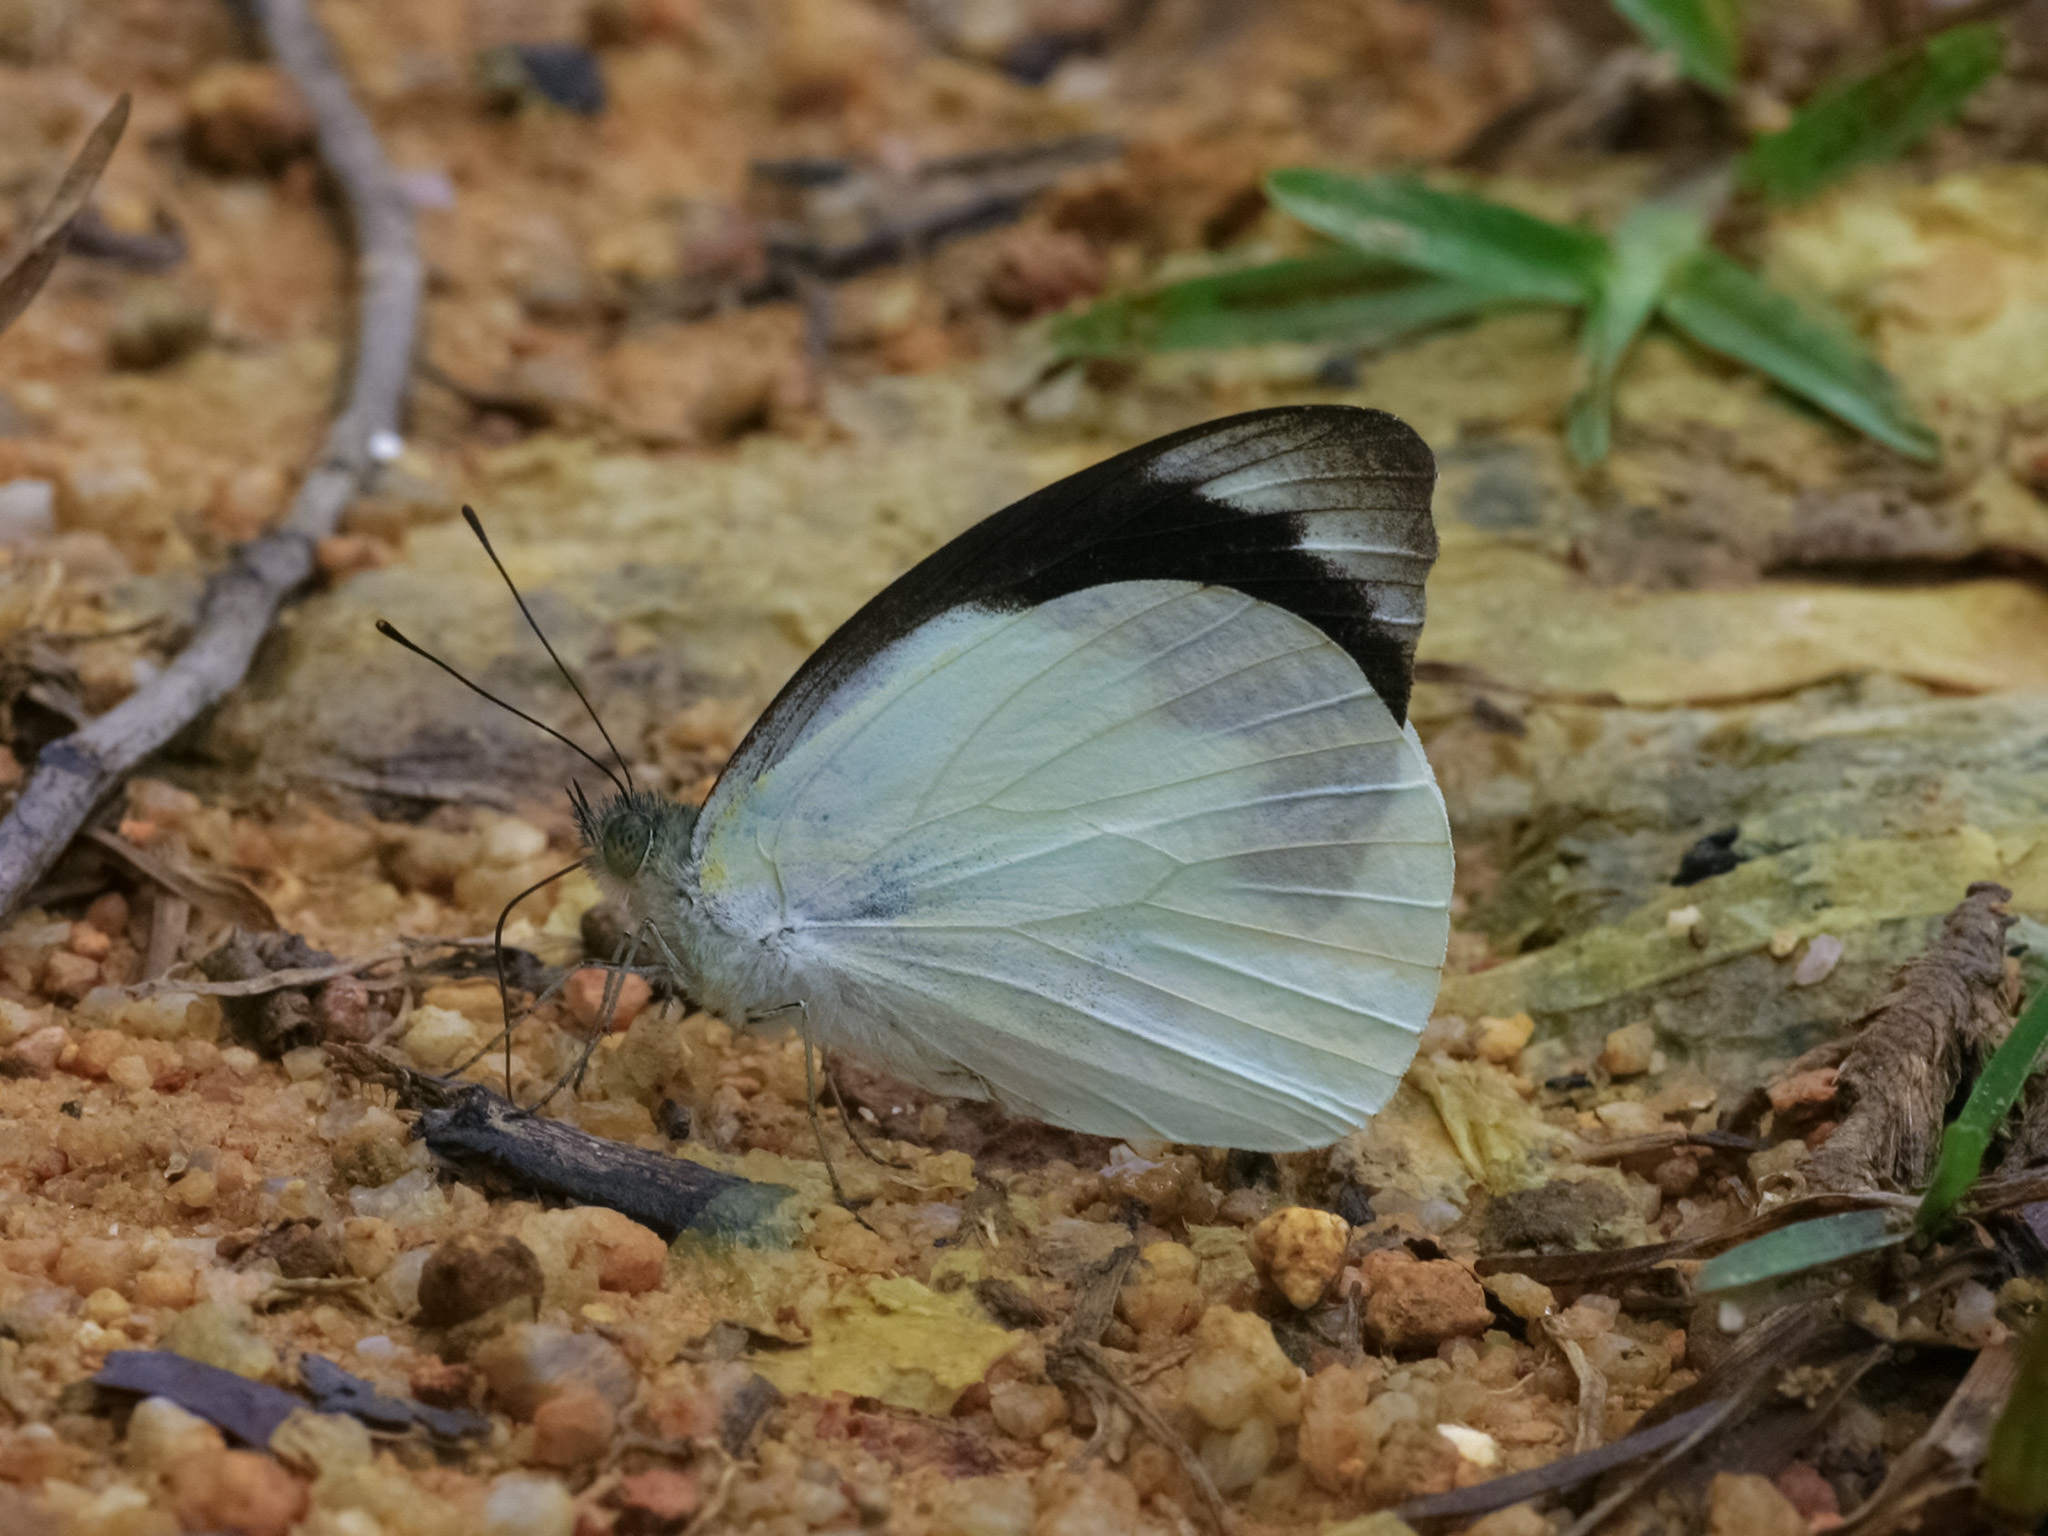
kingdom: Animalia
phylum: Arthropoda
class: Insecta
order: Lepidoptera
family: Pieridae
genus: Appias
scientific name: Appias indra
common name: Plain puffin
